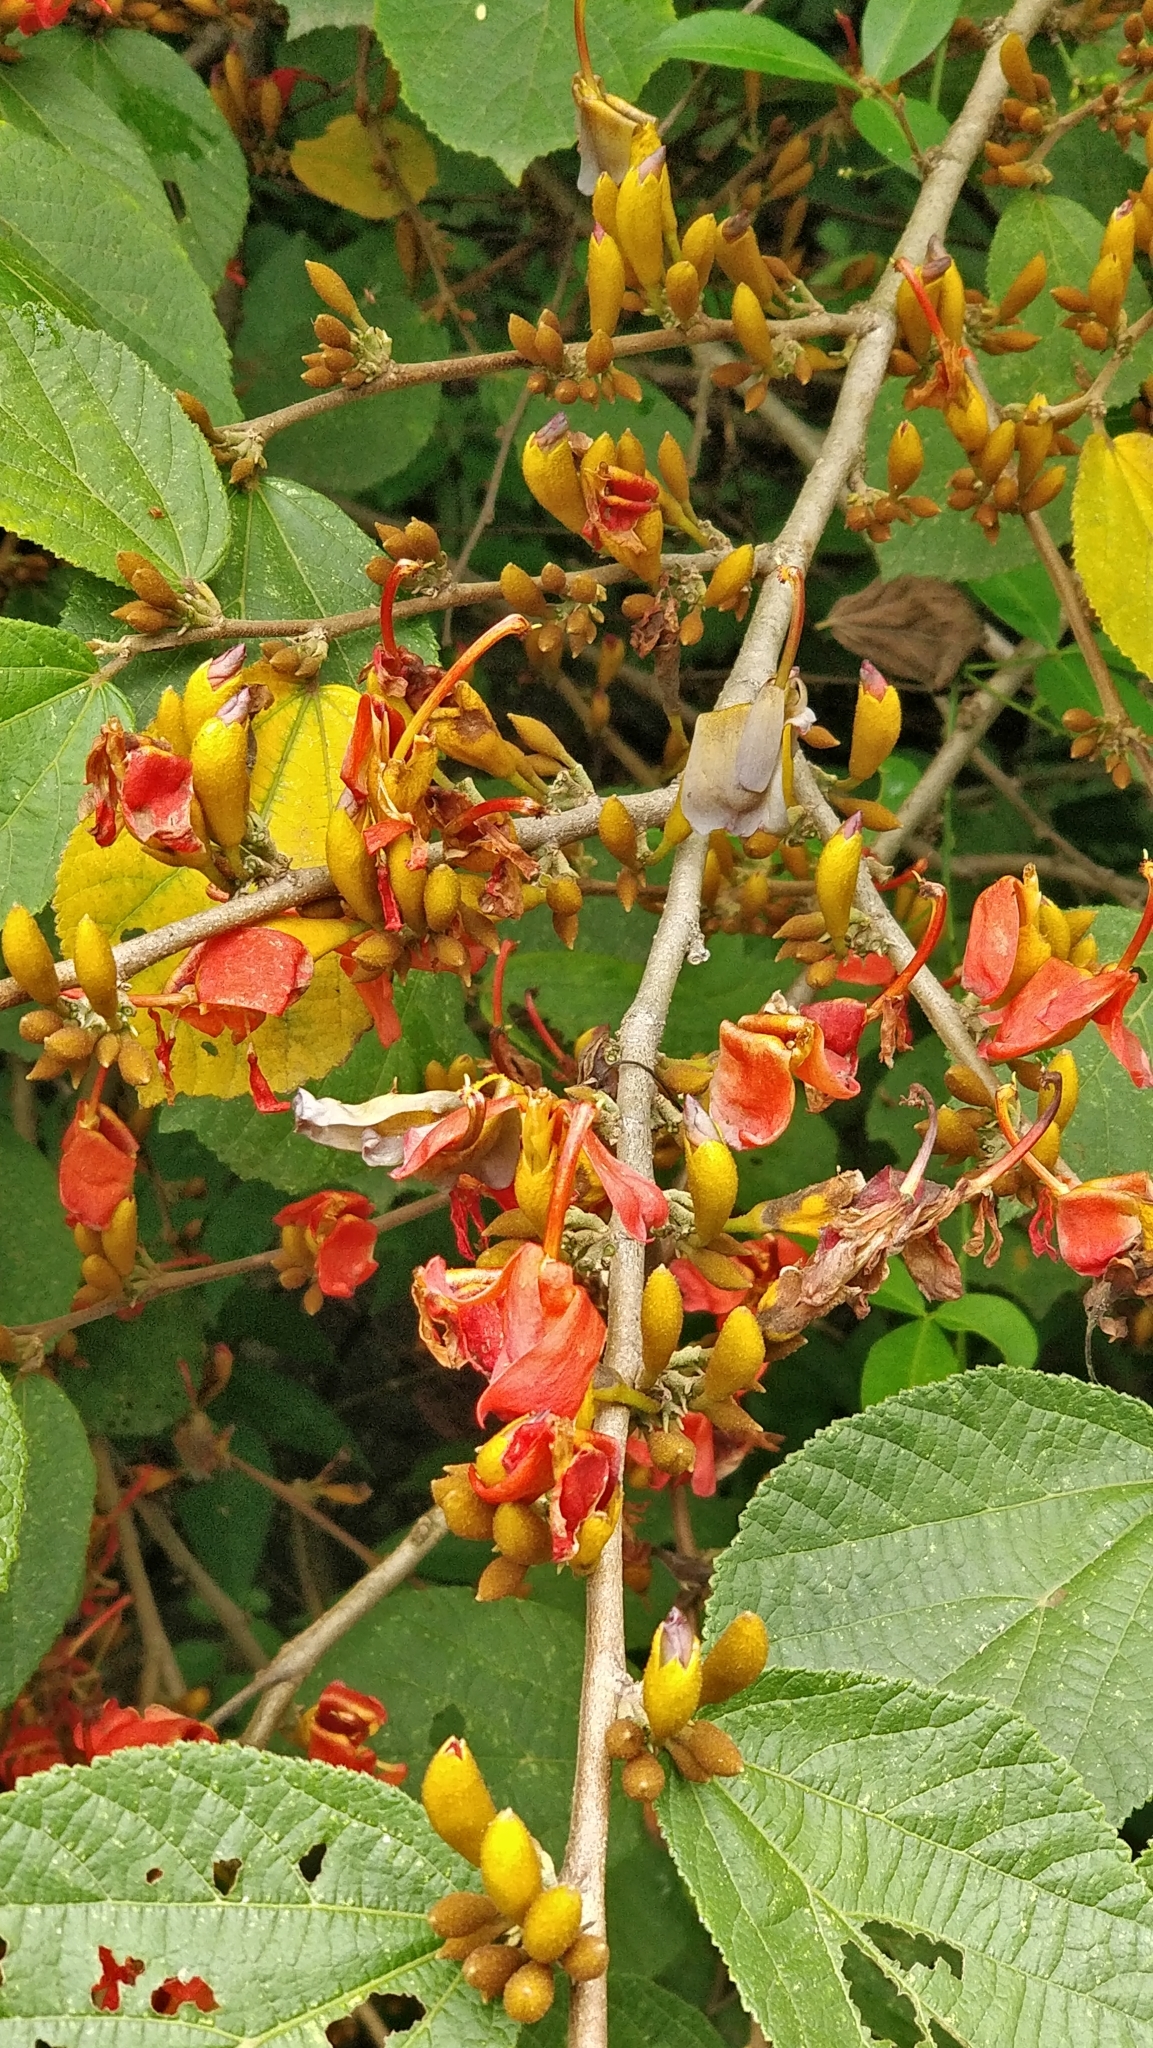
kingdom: Plantae
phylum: Tracheophyta
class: Magnoliopsida
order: Malvales
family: Malvaceae
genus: Helicteres
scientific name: Helicteres isora
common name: East indian screwtree
